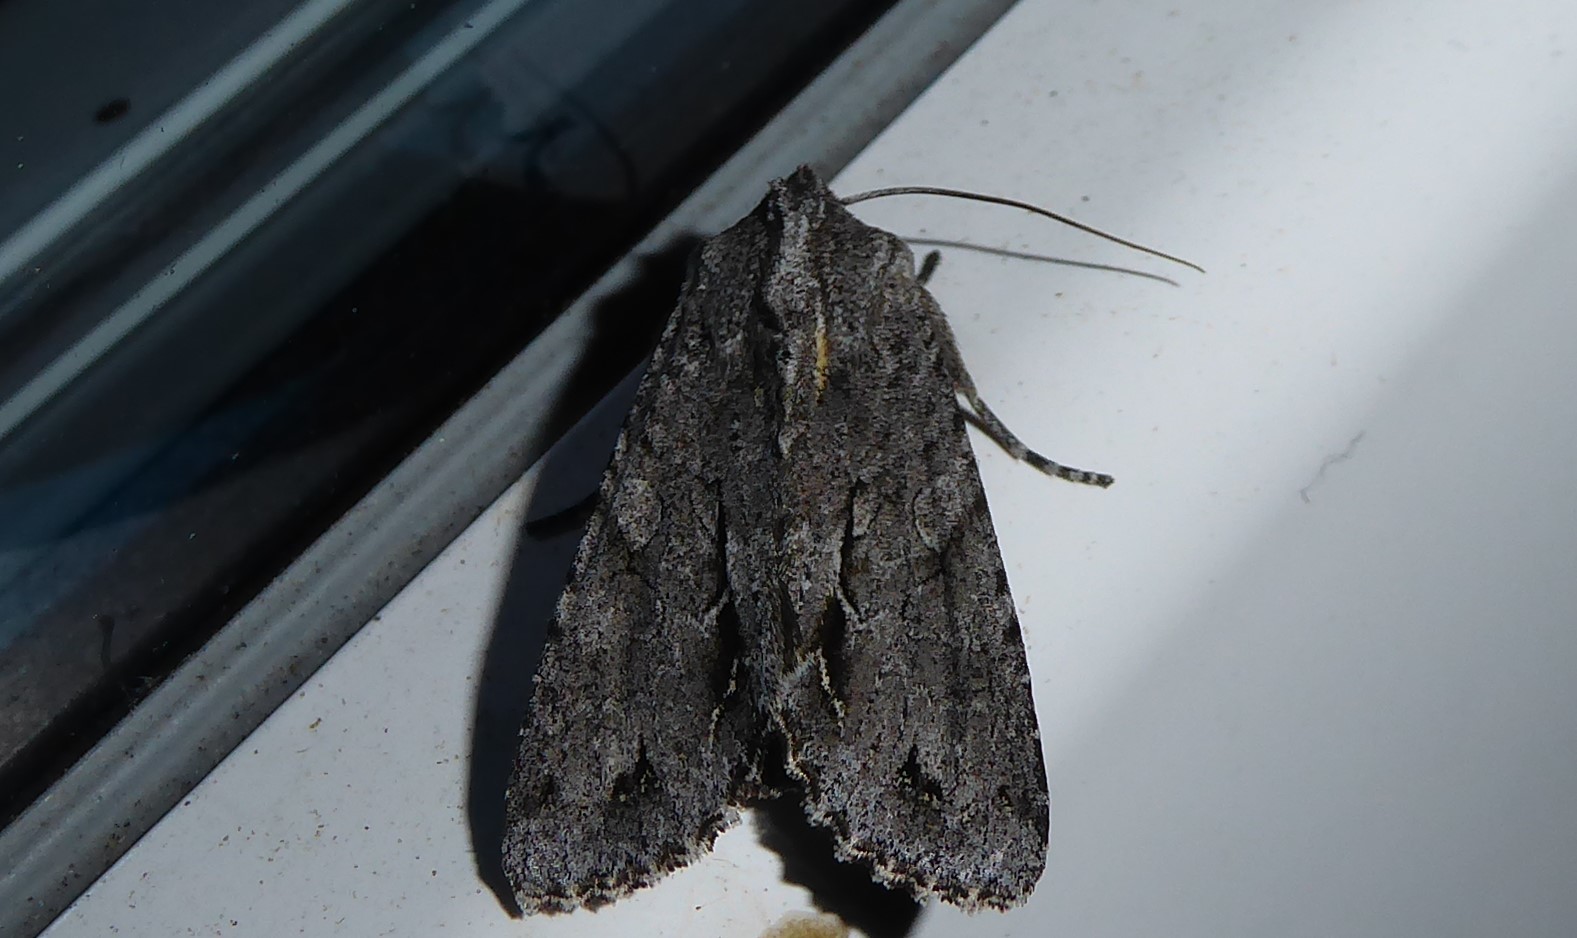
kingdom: Animalia
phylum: Arthropoda
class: Insecta
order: Lepidoptera
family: Noctuidae
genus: Ichneutica
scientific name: Ichneutica
